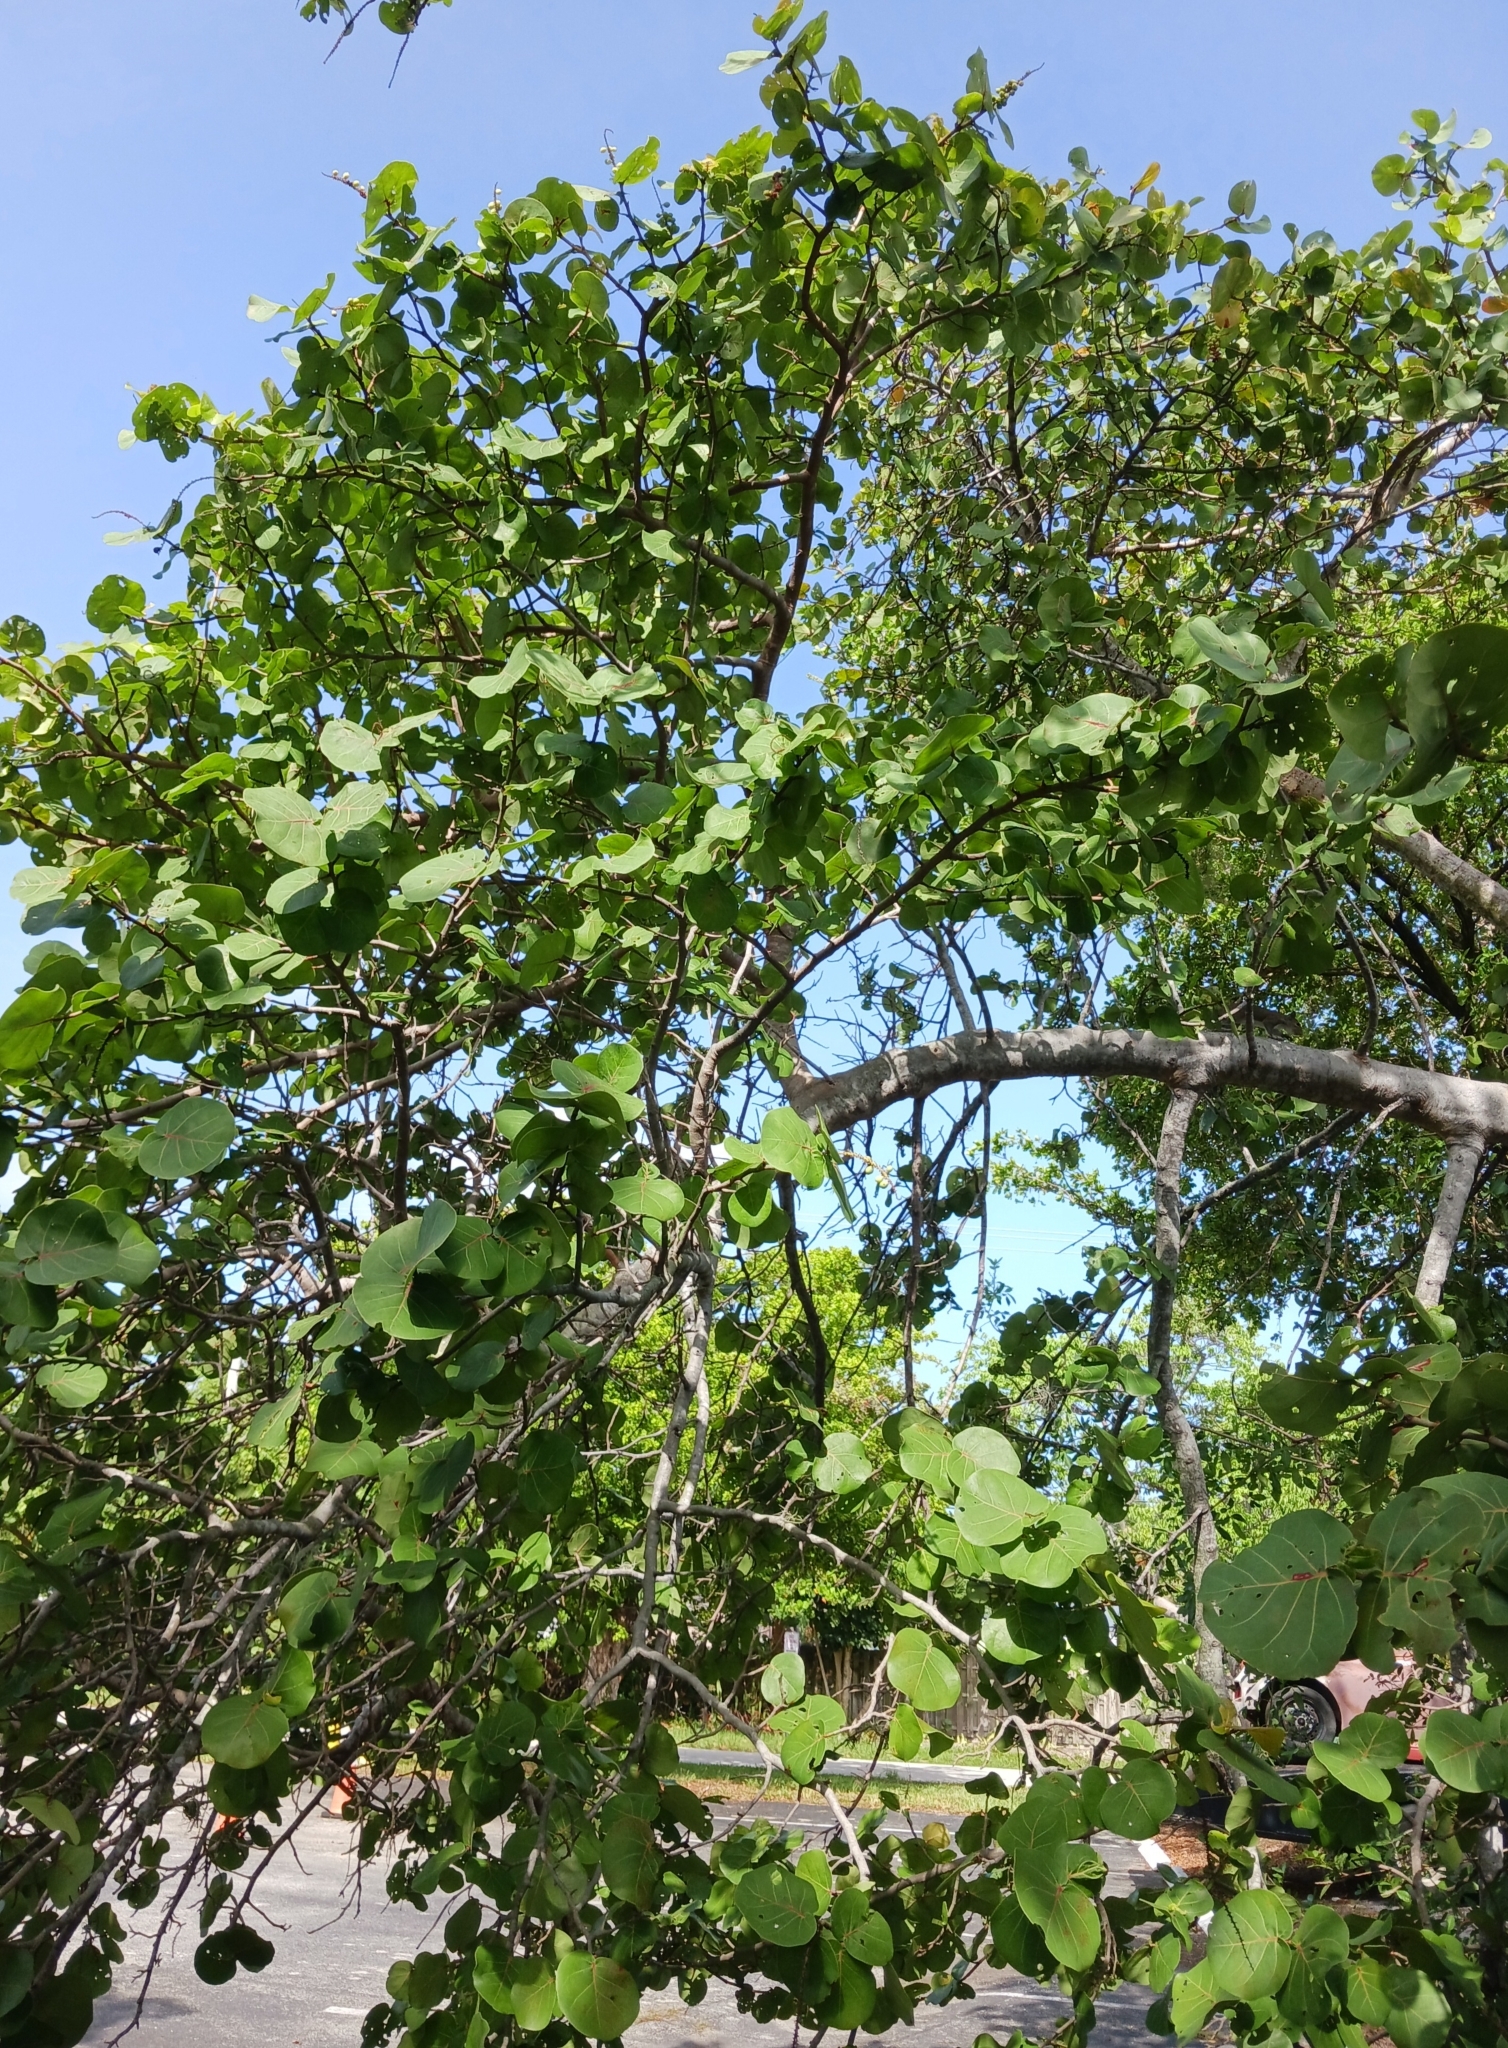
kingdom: Plantae
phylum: Tracheophyta
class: Magnoliopsida
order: Caryophyllales
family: Polygonaceae
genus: Coccoloba
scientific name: Coccoloba uvifera
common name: Seagrape
